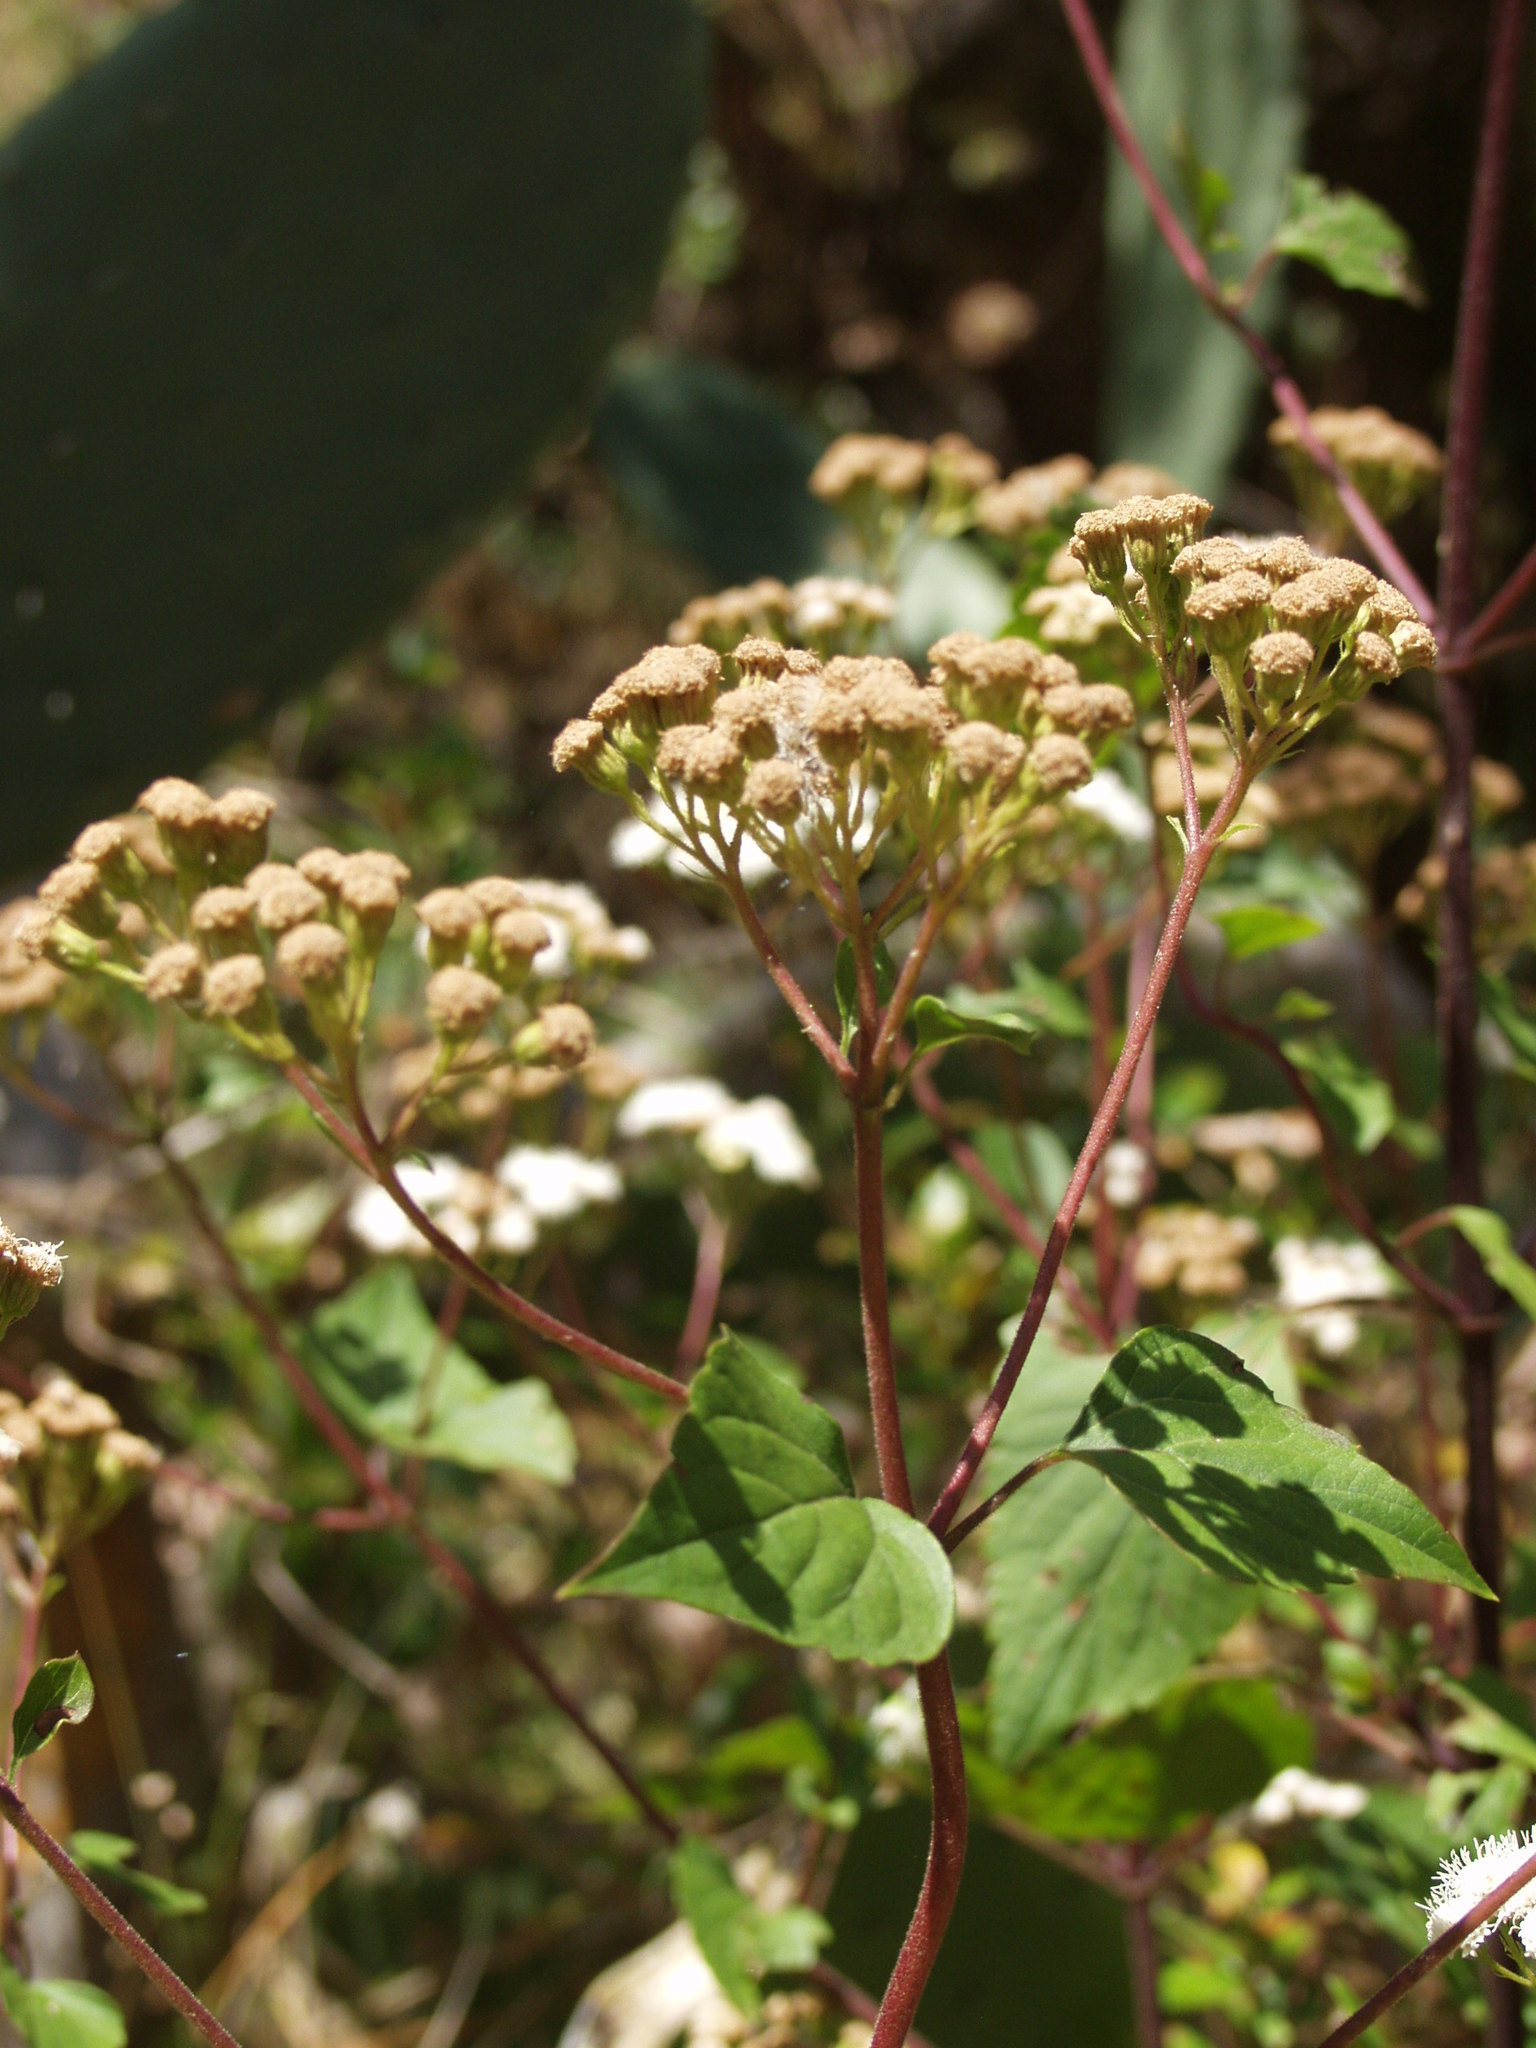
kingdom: Plantae
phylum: Tracheophyta
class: Magnoliopsida
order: Asterales
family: Asteraceae
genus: Ageratina
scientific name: Ageratina adenophora
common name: Sticky snakeroot
